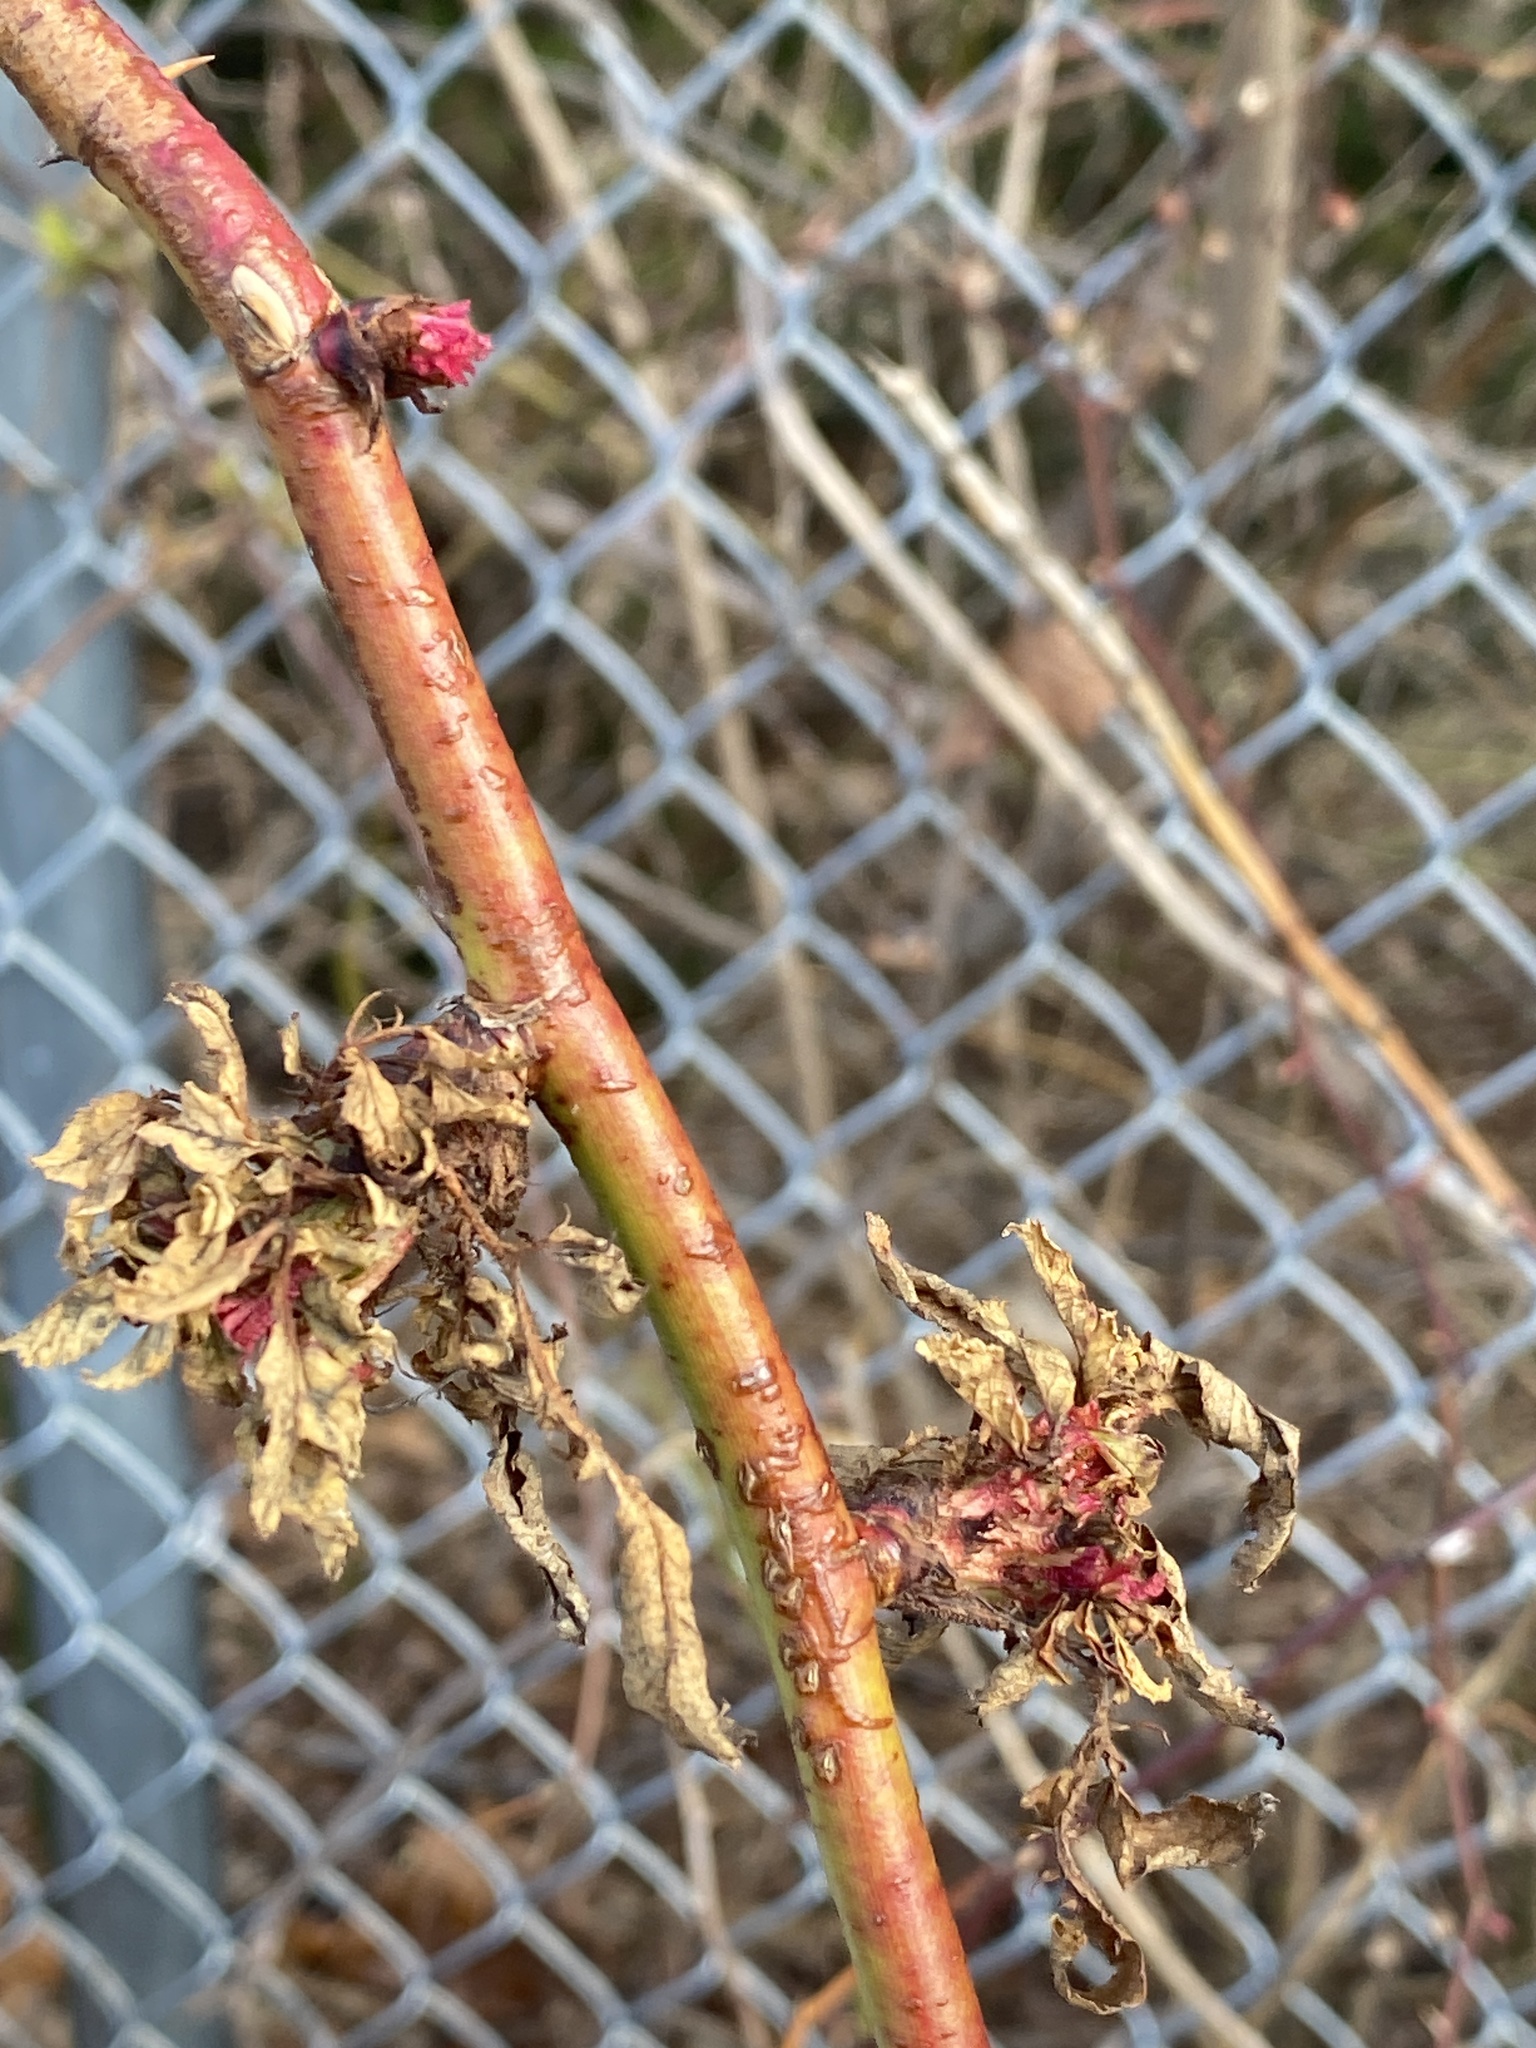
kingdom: Viruses
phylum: Negarnaviricota
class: Ellioviricetes
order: Bunyavirales
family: Fimoviridae
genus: Emaravirus
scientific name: Emaravirus rosae
